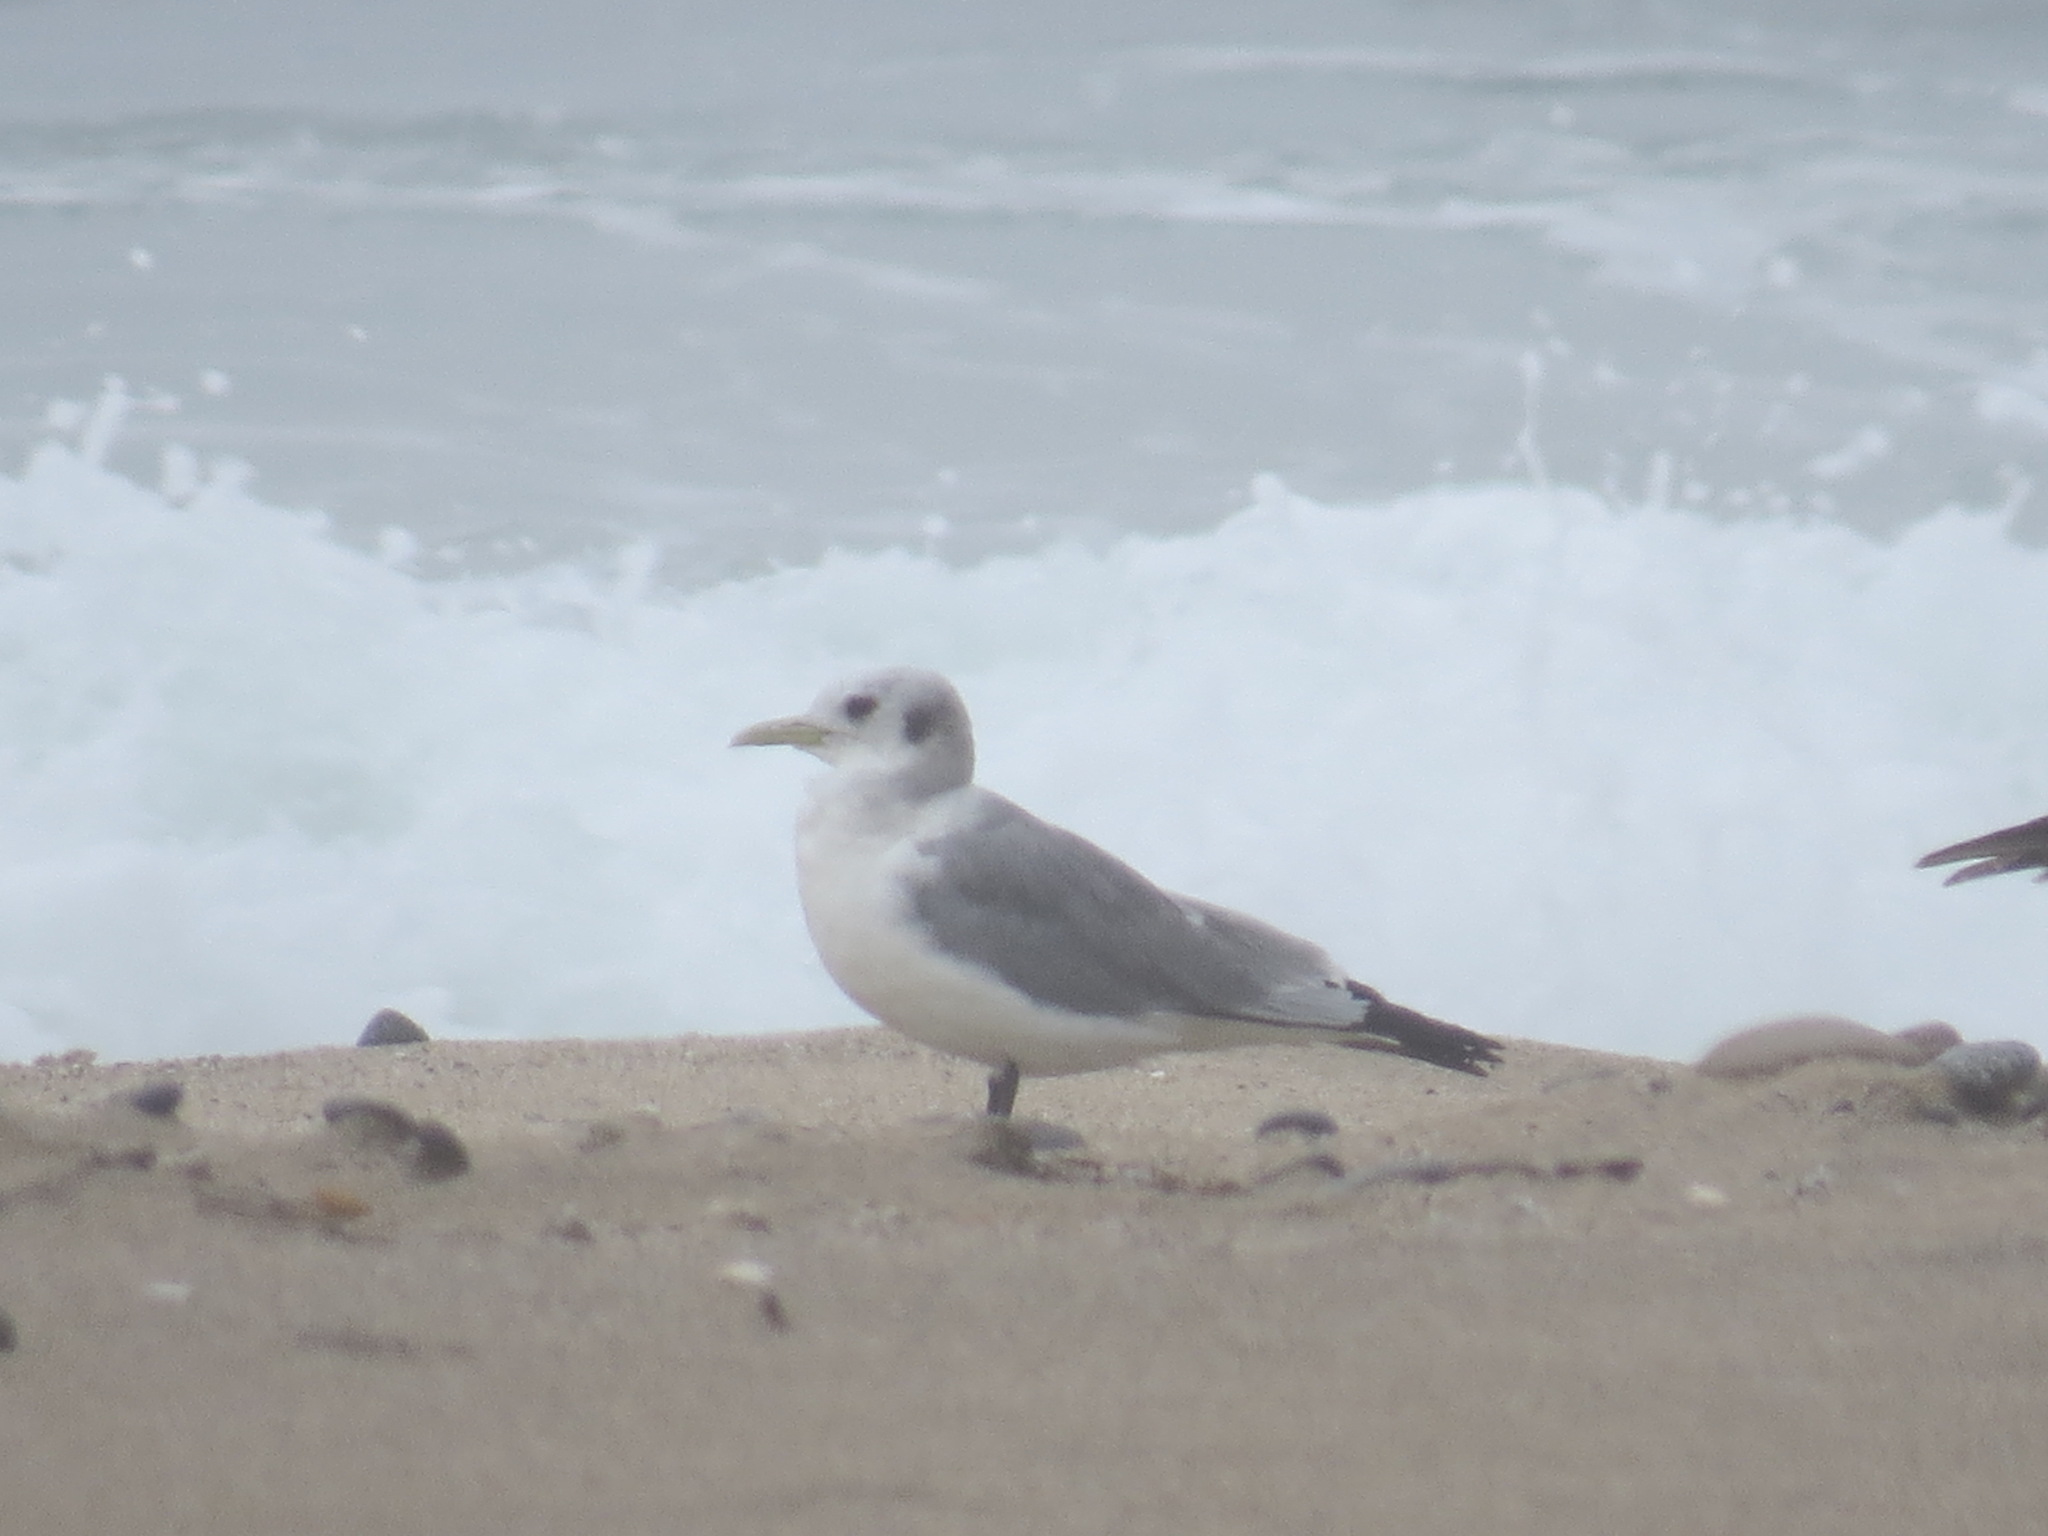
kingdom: Animalia
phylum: Chordata
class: Aves
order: Charadriiformes
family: Laridae
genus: Rissa
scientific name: Rissa tridactyla
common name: Black-legged kittiwake
